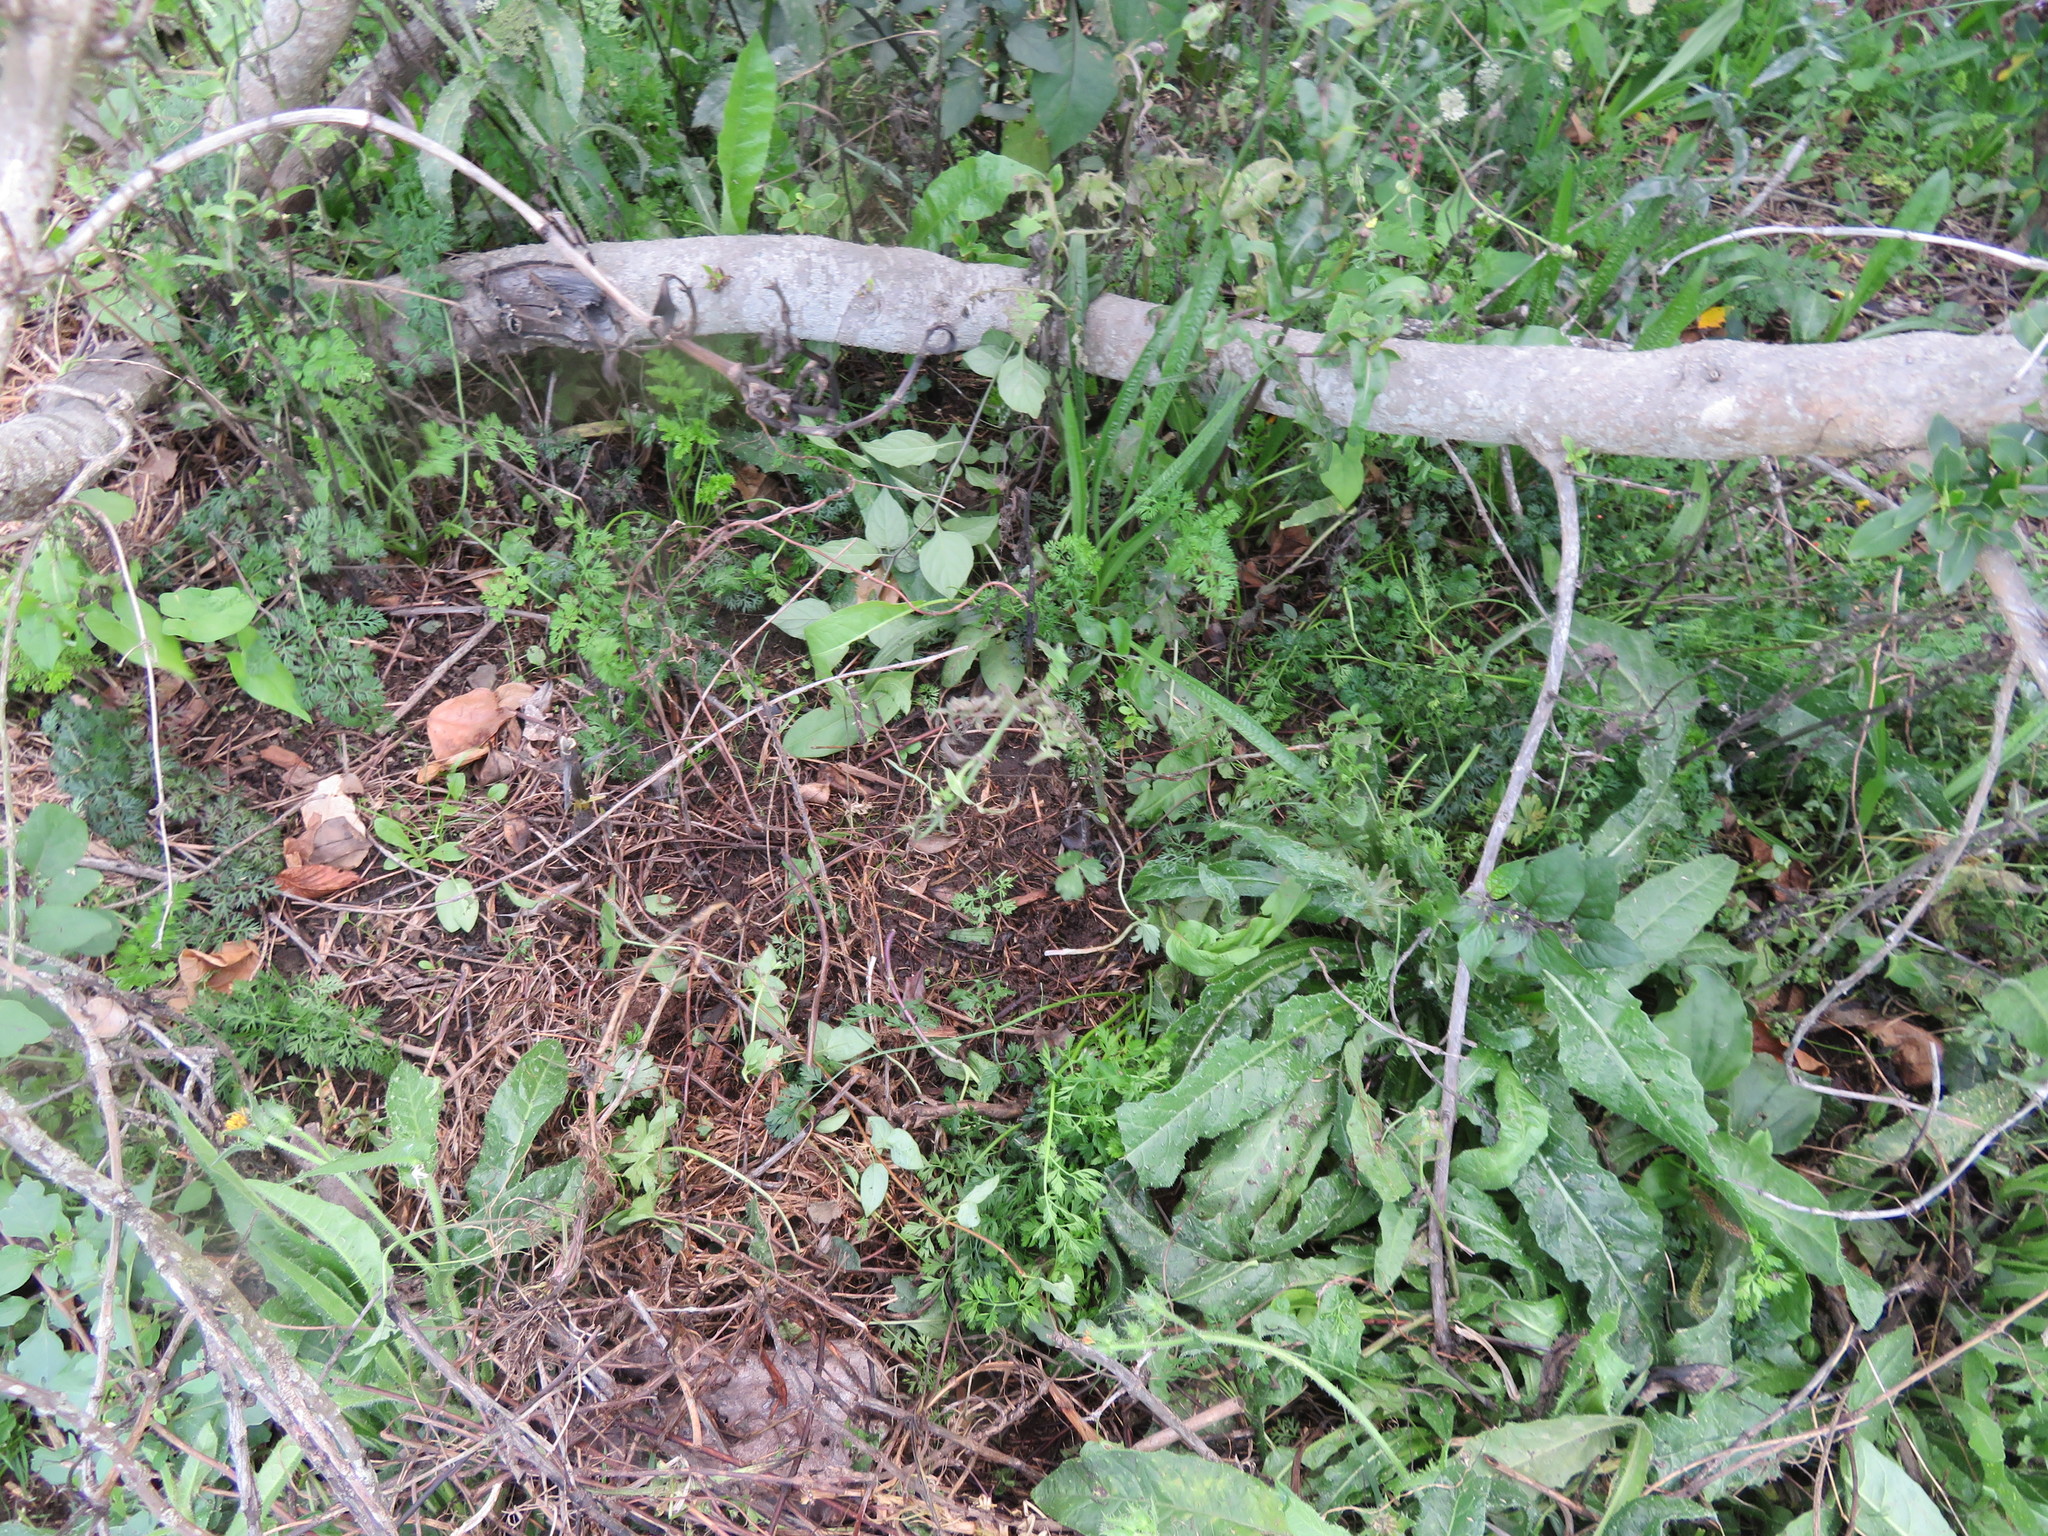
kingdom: Plantae
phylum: Tracheophyta
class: Magnoliopsida
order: Asterales
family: Asteraceae
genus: Helminthotheca
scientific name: Helminthotheca echioides
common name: Ox-tongue
